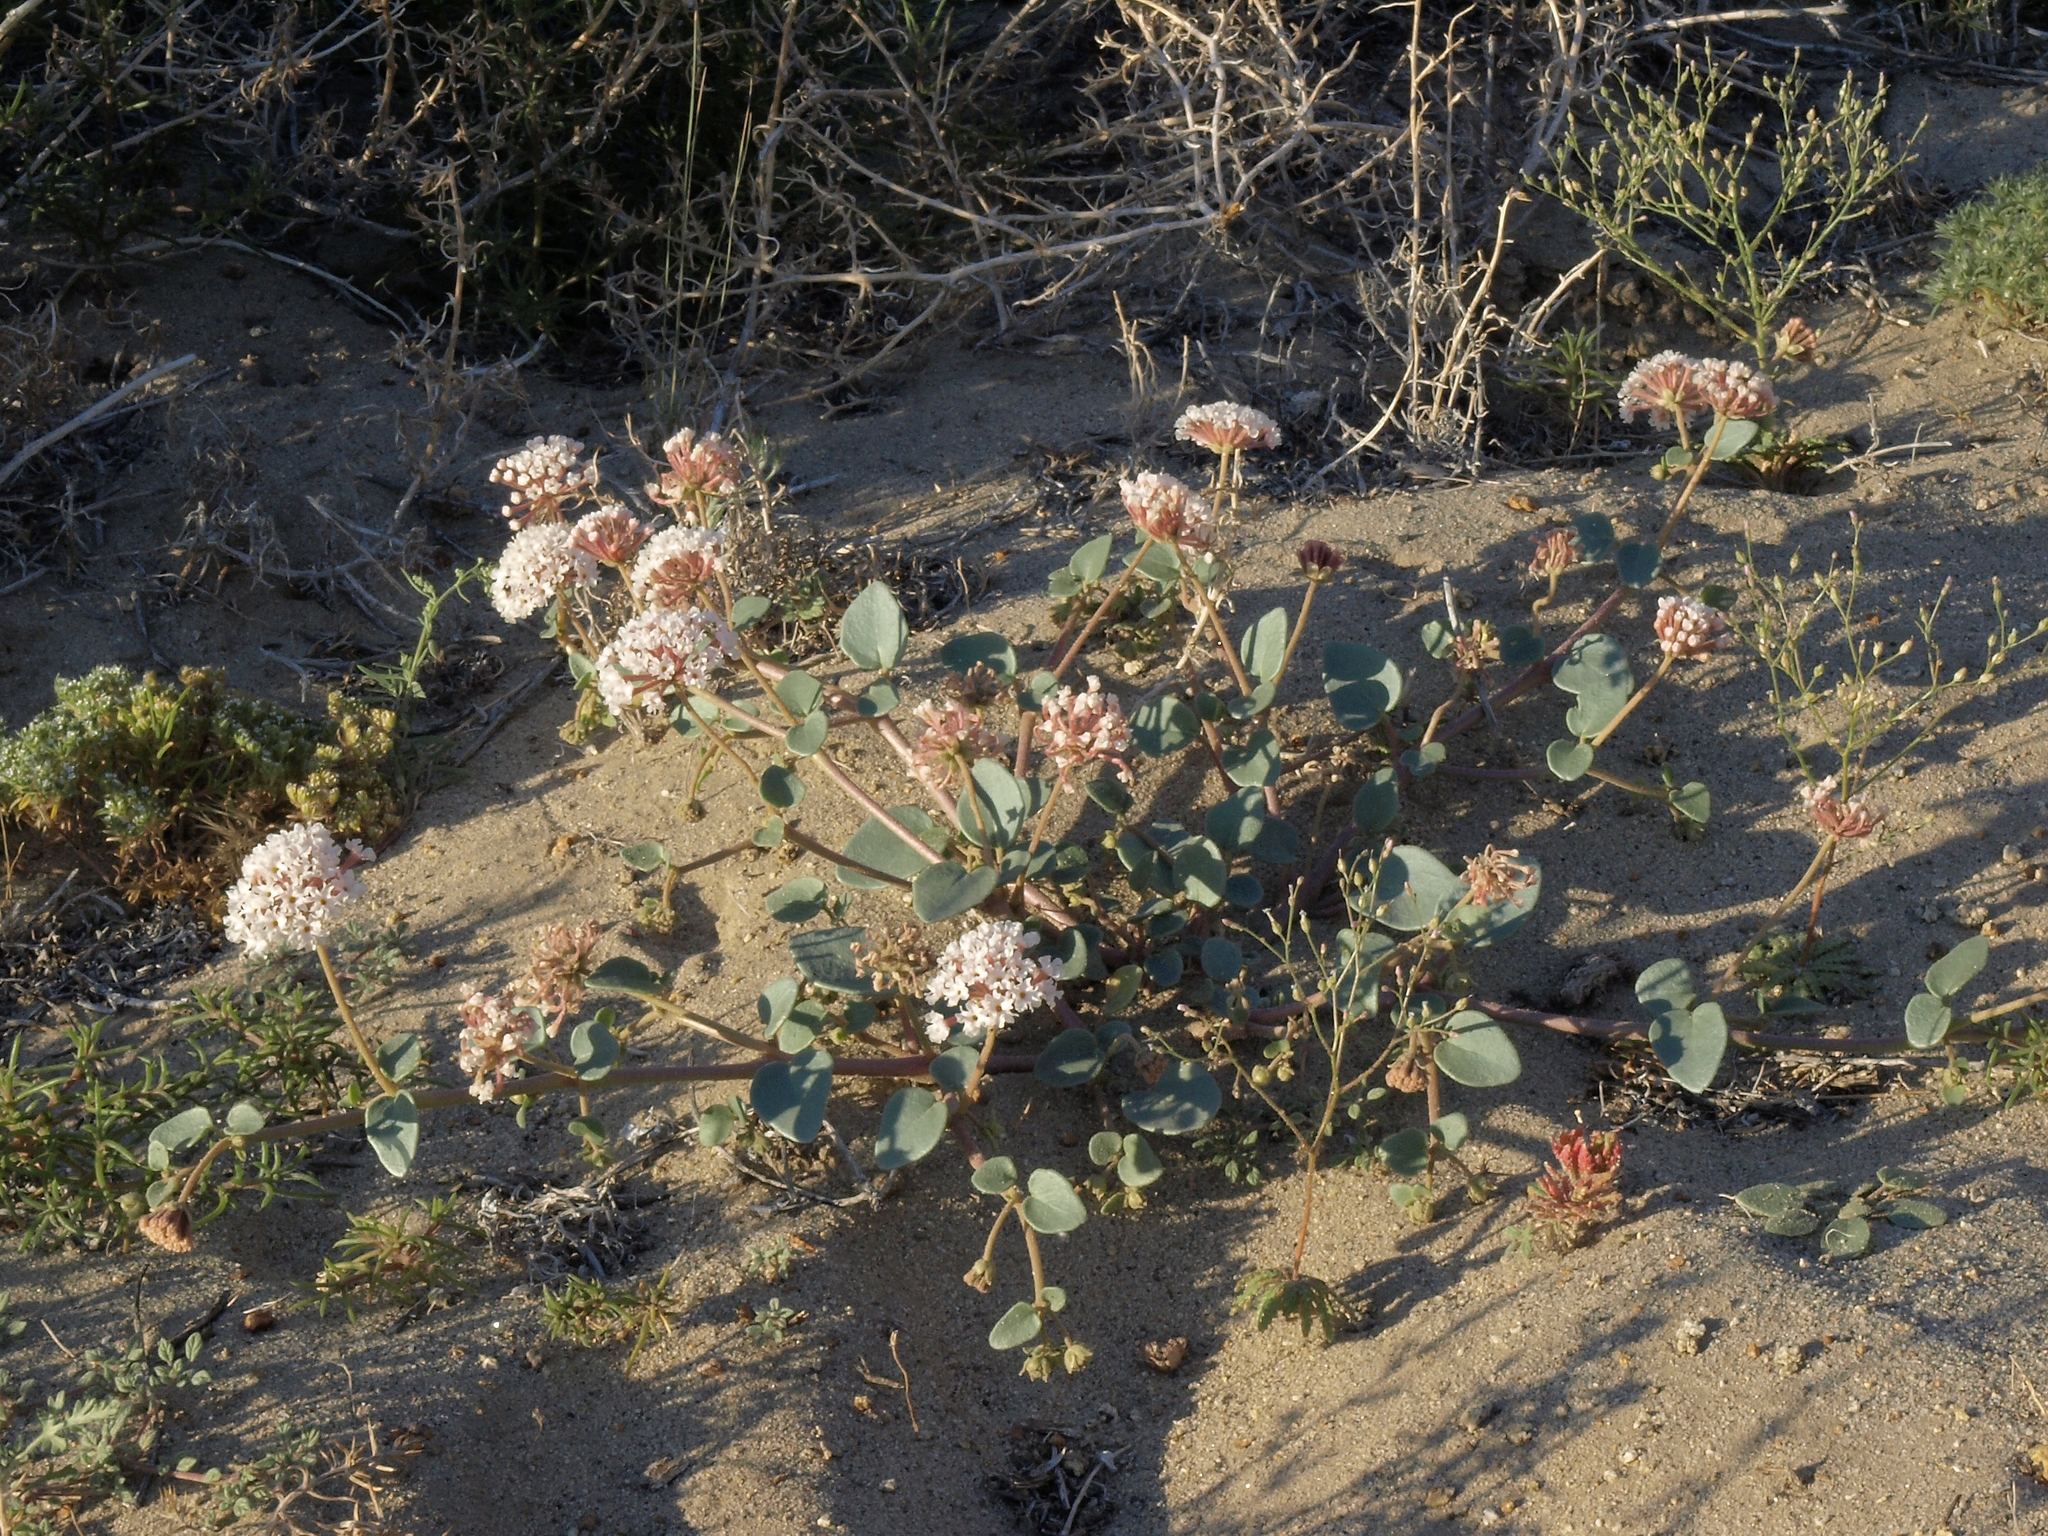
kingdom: Plantae
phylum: Tracheophyta
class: Magnoliopsida
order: Caryophyllales
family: Nyctaginaceae
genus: Abronia
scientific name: Abronia turbinata
